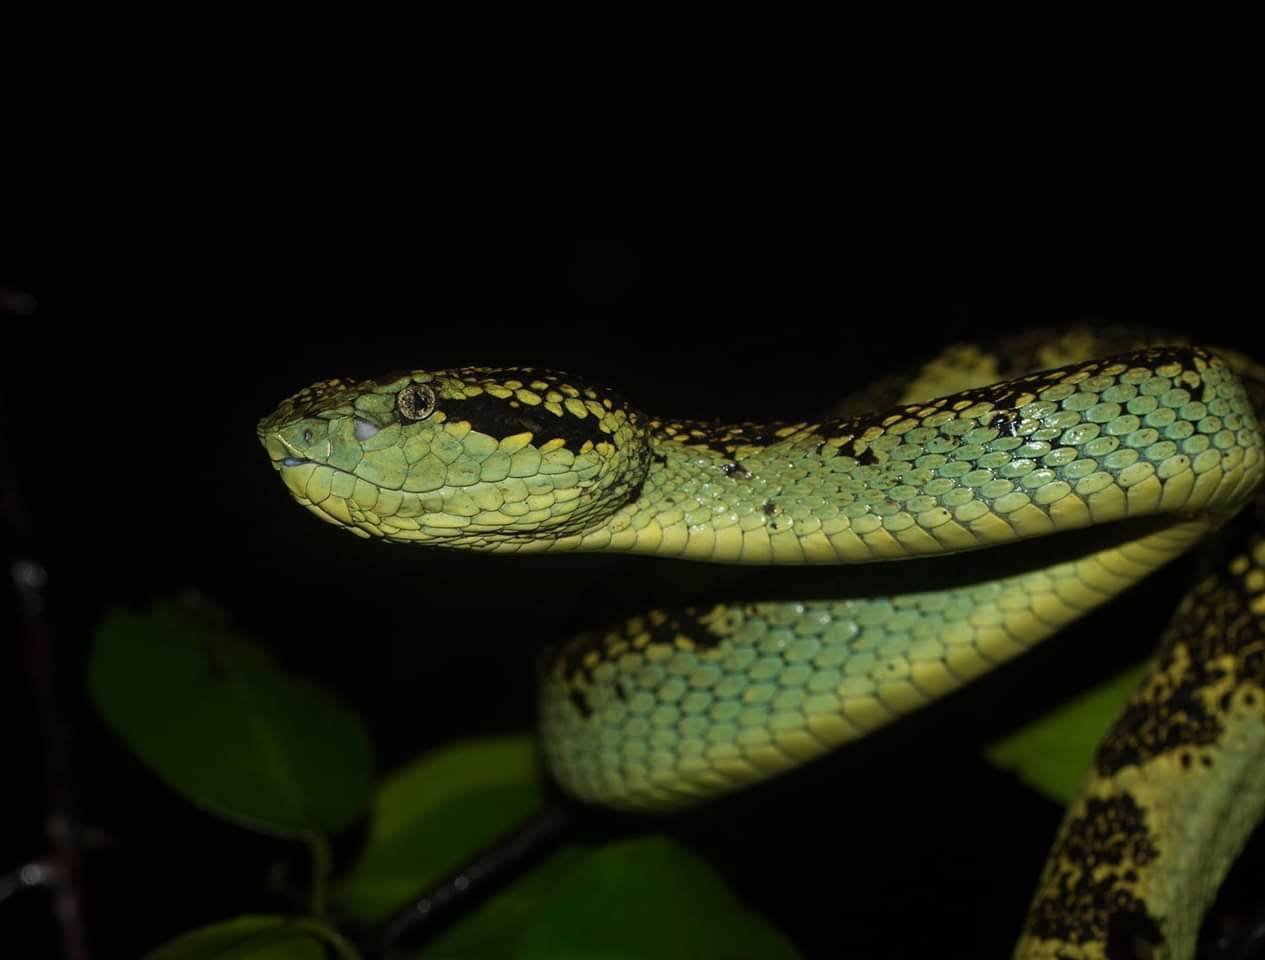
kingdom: Animalia
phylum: Chordata
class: Squamata
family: Viperidae
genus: Craspedocephalus
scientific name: Craspedocephalus malabaricus
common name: Malabarian pit viper
